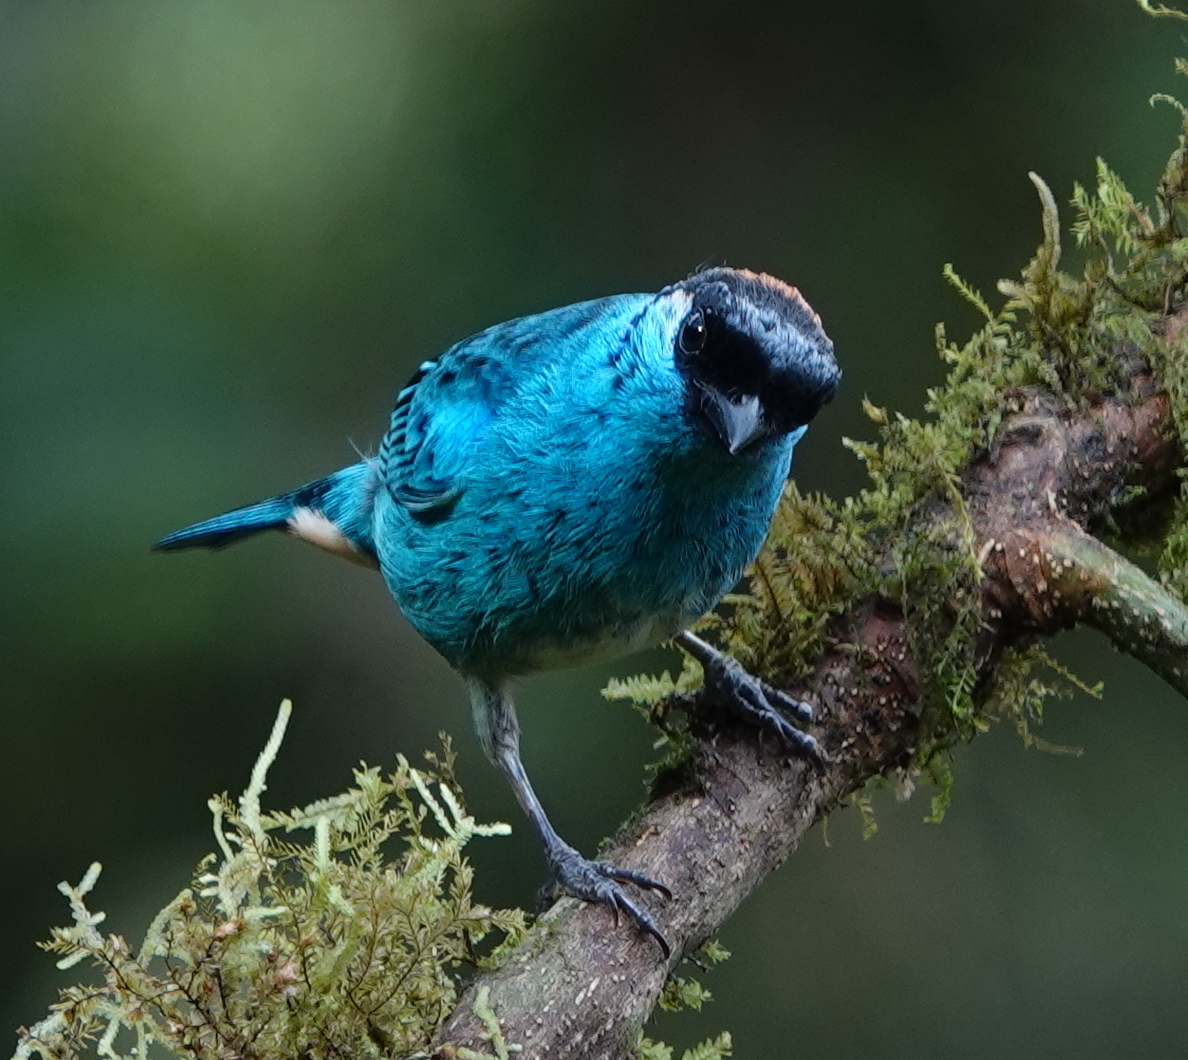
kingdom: Animalia
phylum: Chordata
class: Aves
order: Passeriformes
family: Thraupidae
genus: Chalcothraupis
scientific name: Chalcothraupis ruficervix
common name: Golden-naped tanager
